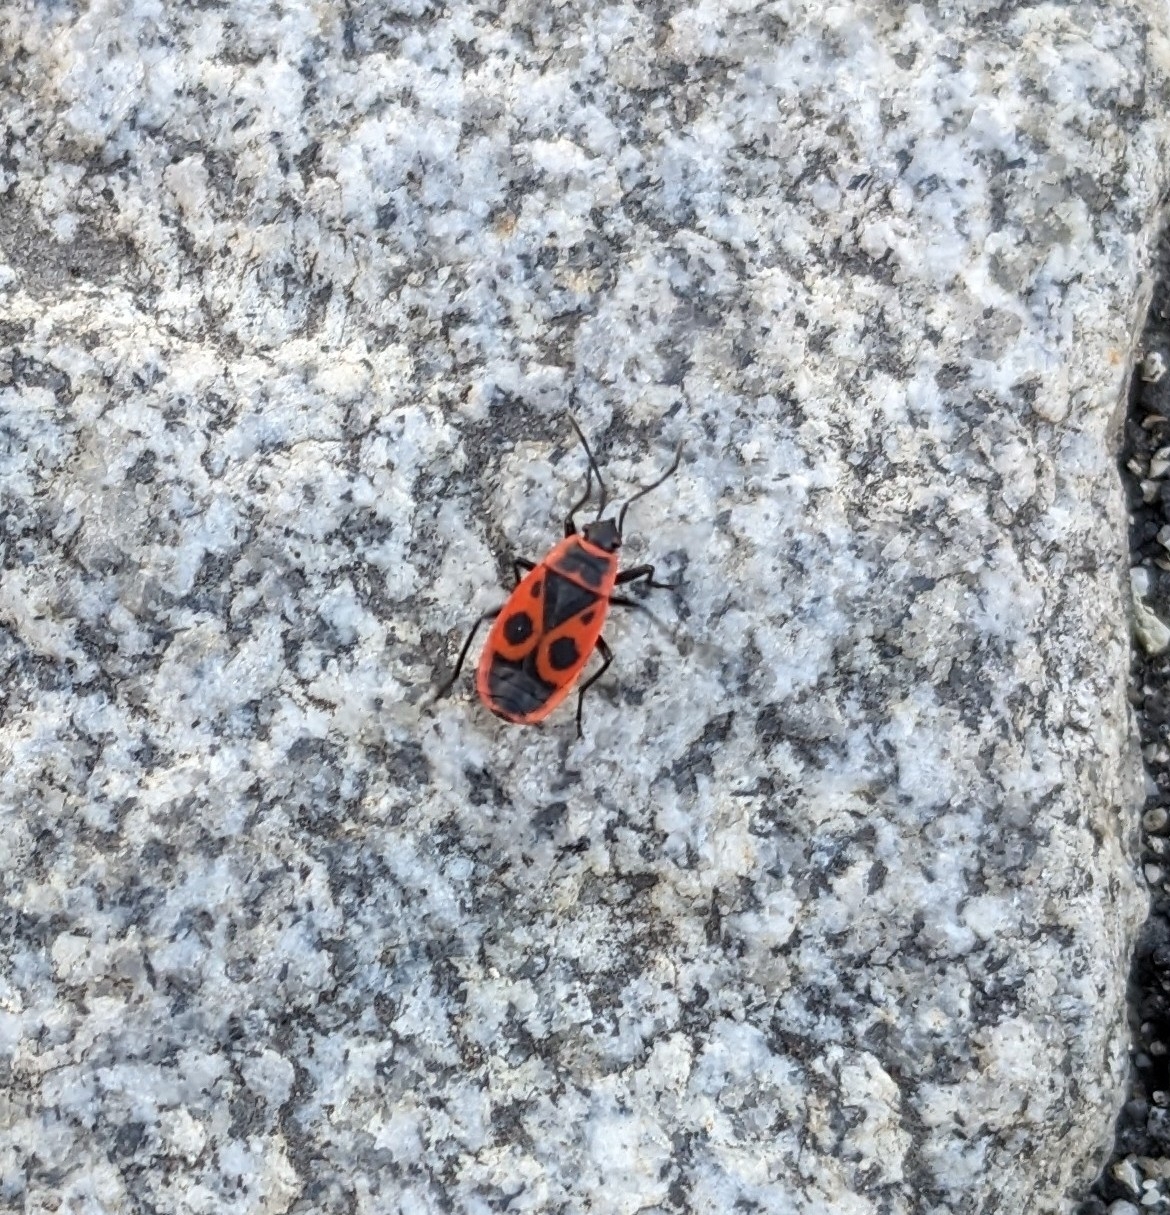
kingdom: Animalia
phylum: Arthropoda
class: Insecta
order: Hemiptera
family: Pyrrhocoridae
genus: Pyrrhocoris
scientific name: Pyrrhocoris apterus
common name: Firebug
